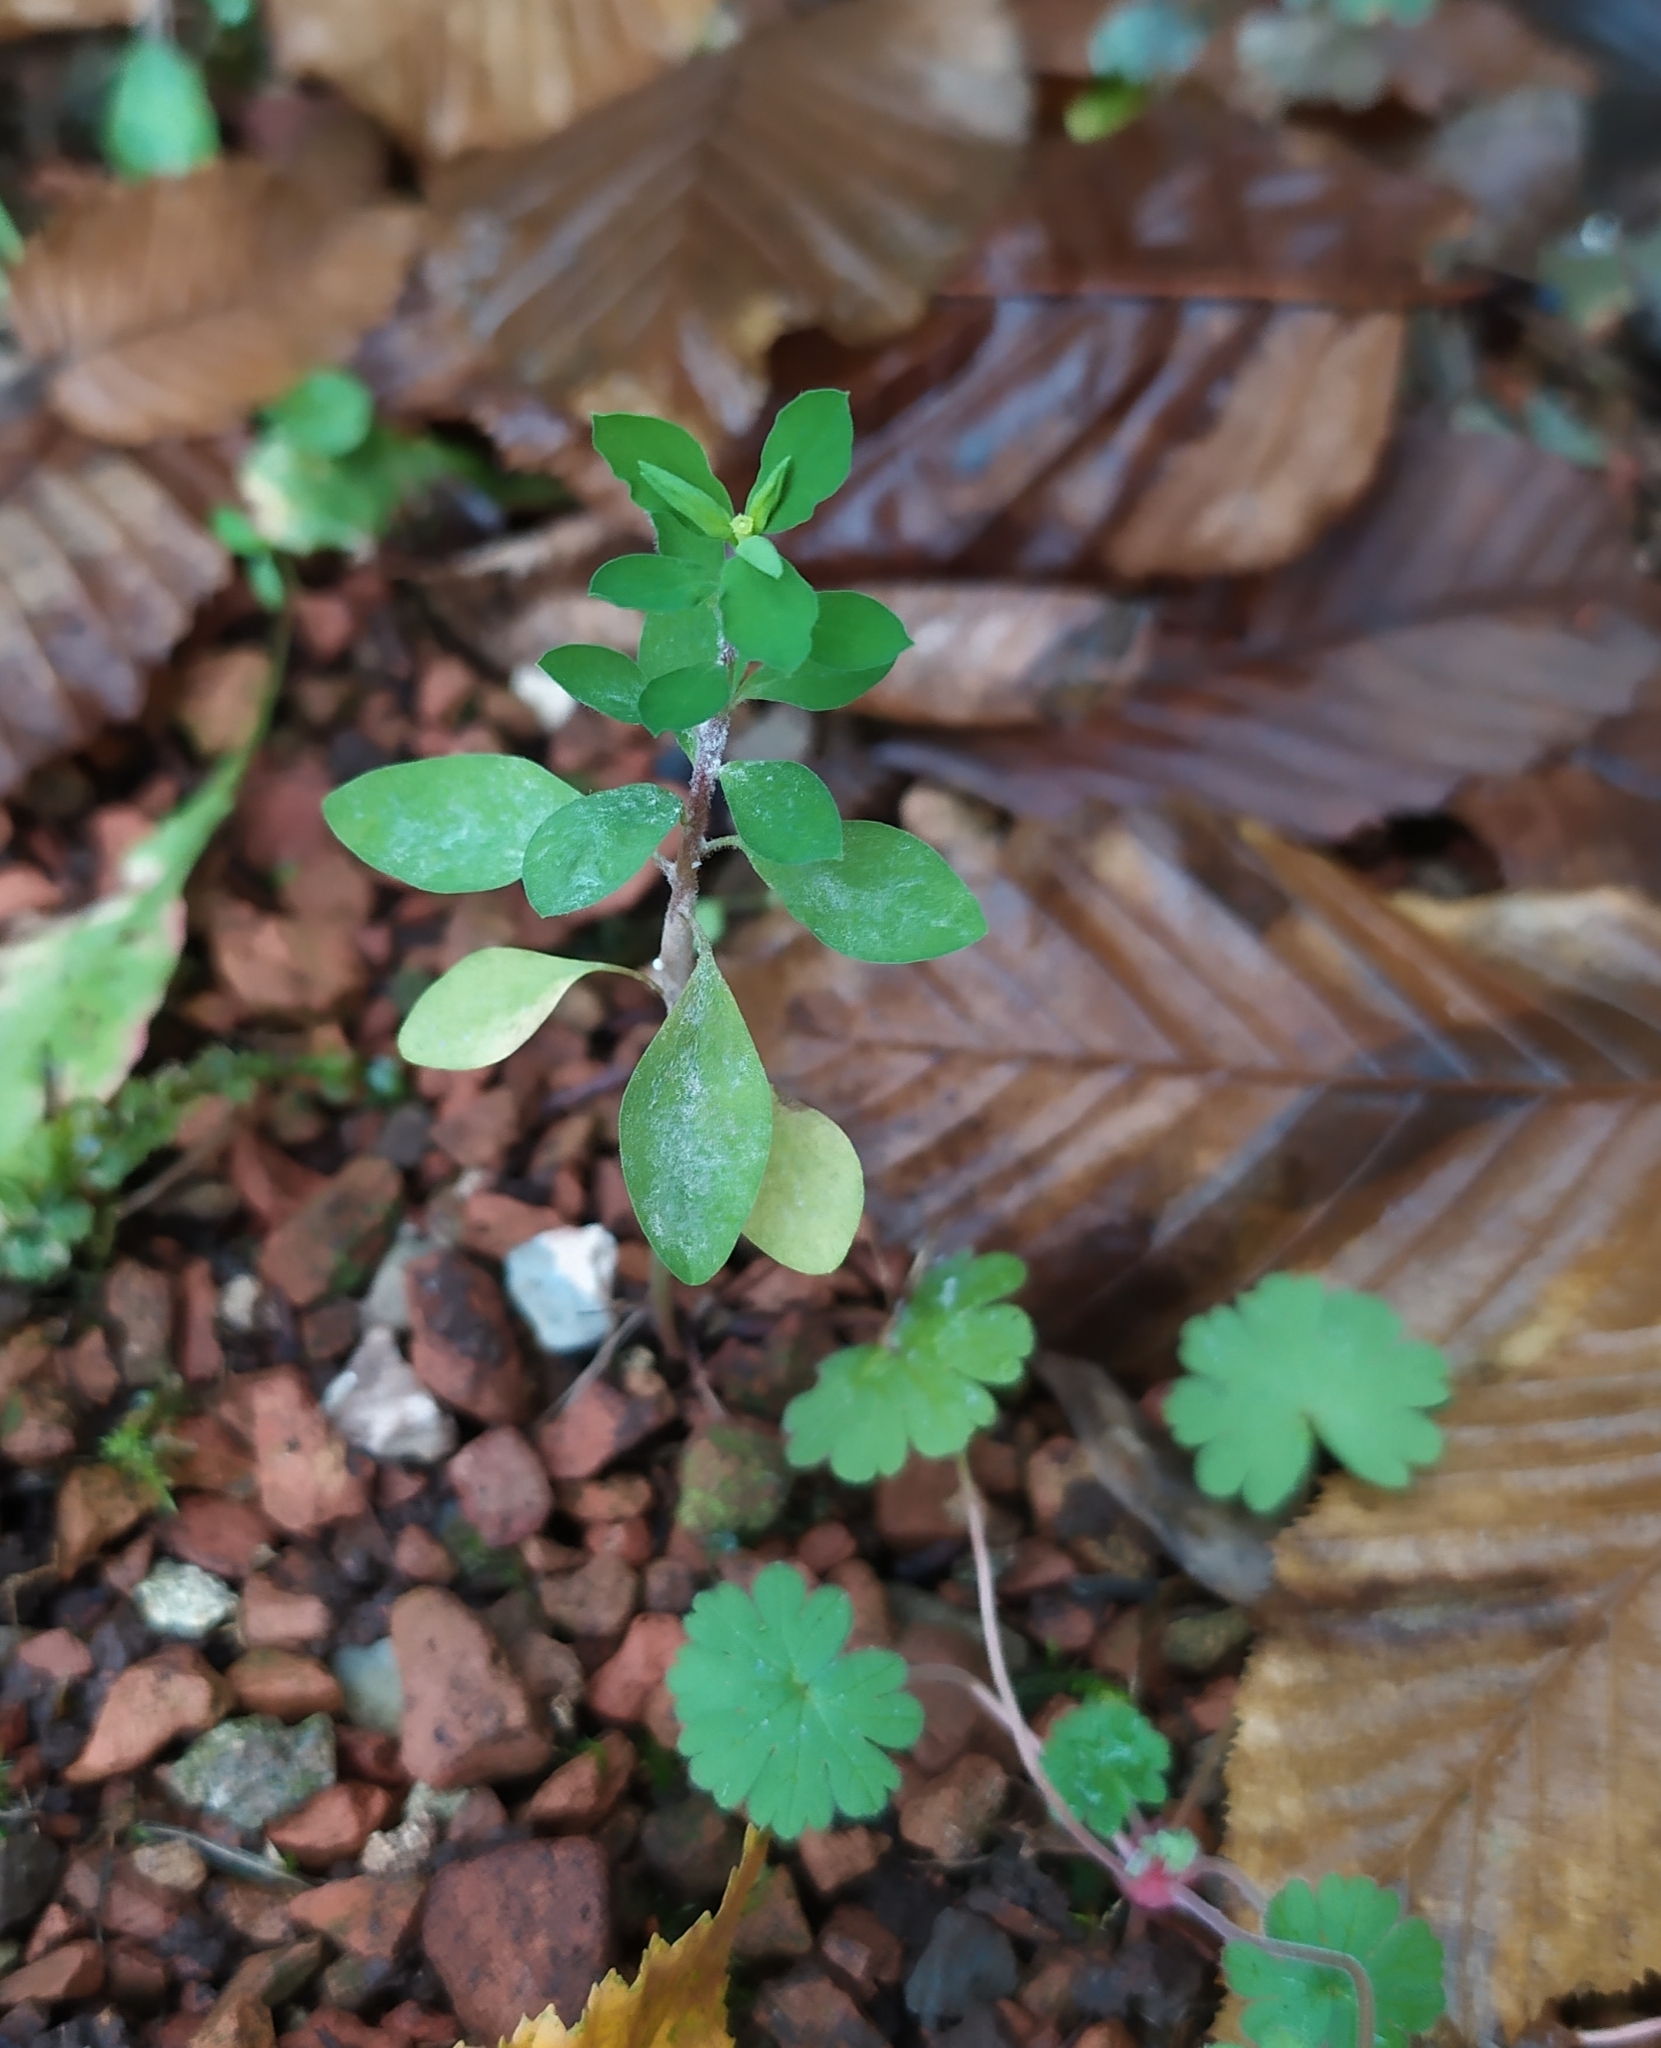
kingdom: Plantae
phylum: Tracheophyta
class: Magnoliopsida
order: Malpighiales
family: Euphorbiaceae
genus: Euphorbia
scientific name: Euphorbia peplus
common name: Petty spurge
